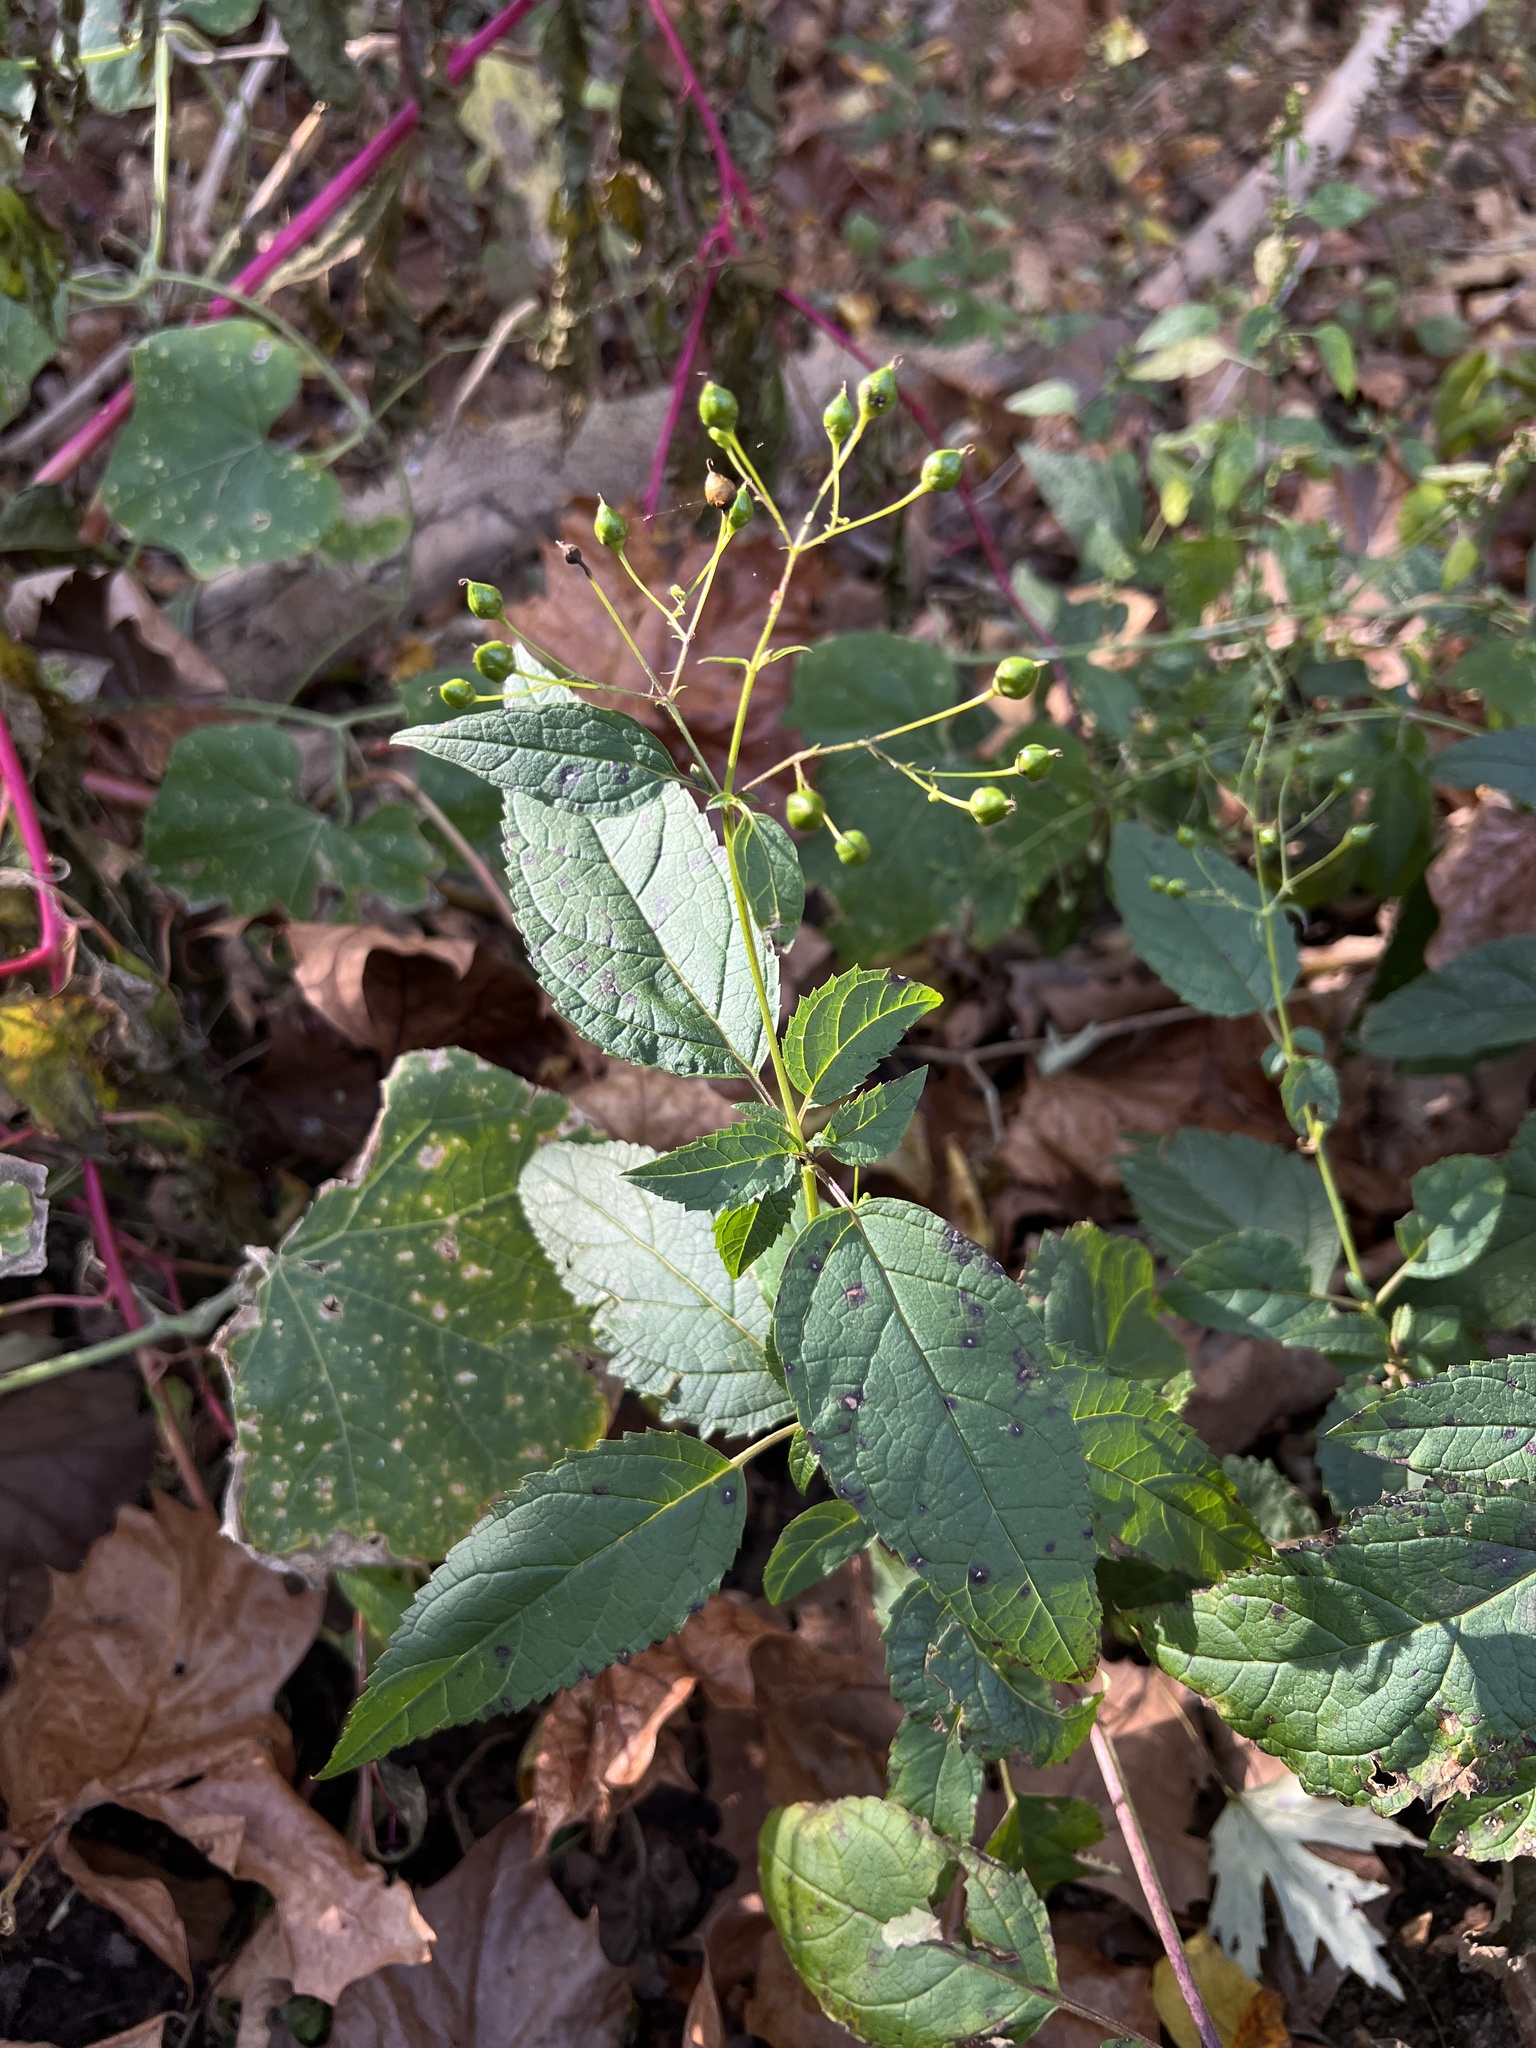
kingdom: Plantae
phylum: Tracheophyta
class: Magnoliopsida
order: Lamiales
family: Scrophulariaceae
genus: Scrophularia
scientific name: Scrophularia marilandica
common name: Eastern figwort
